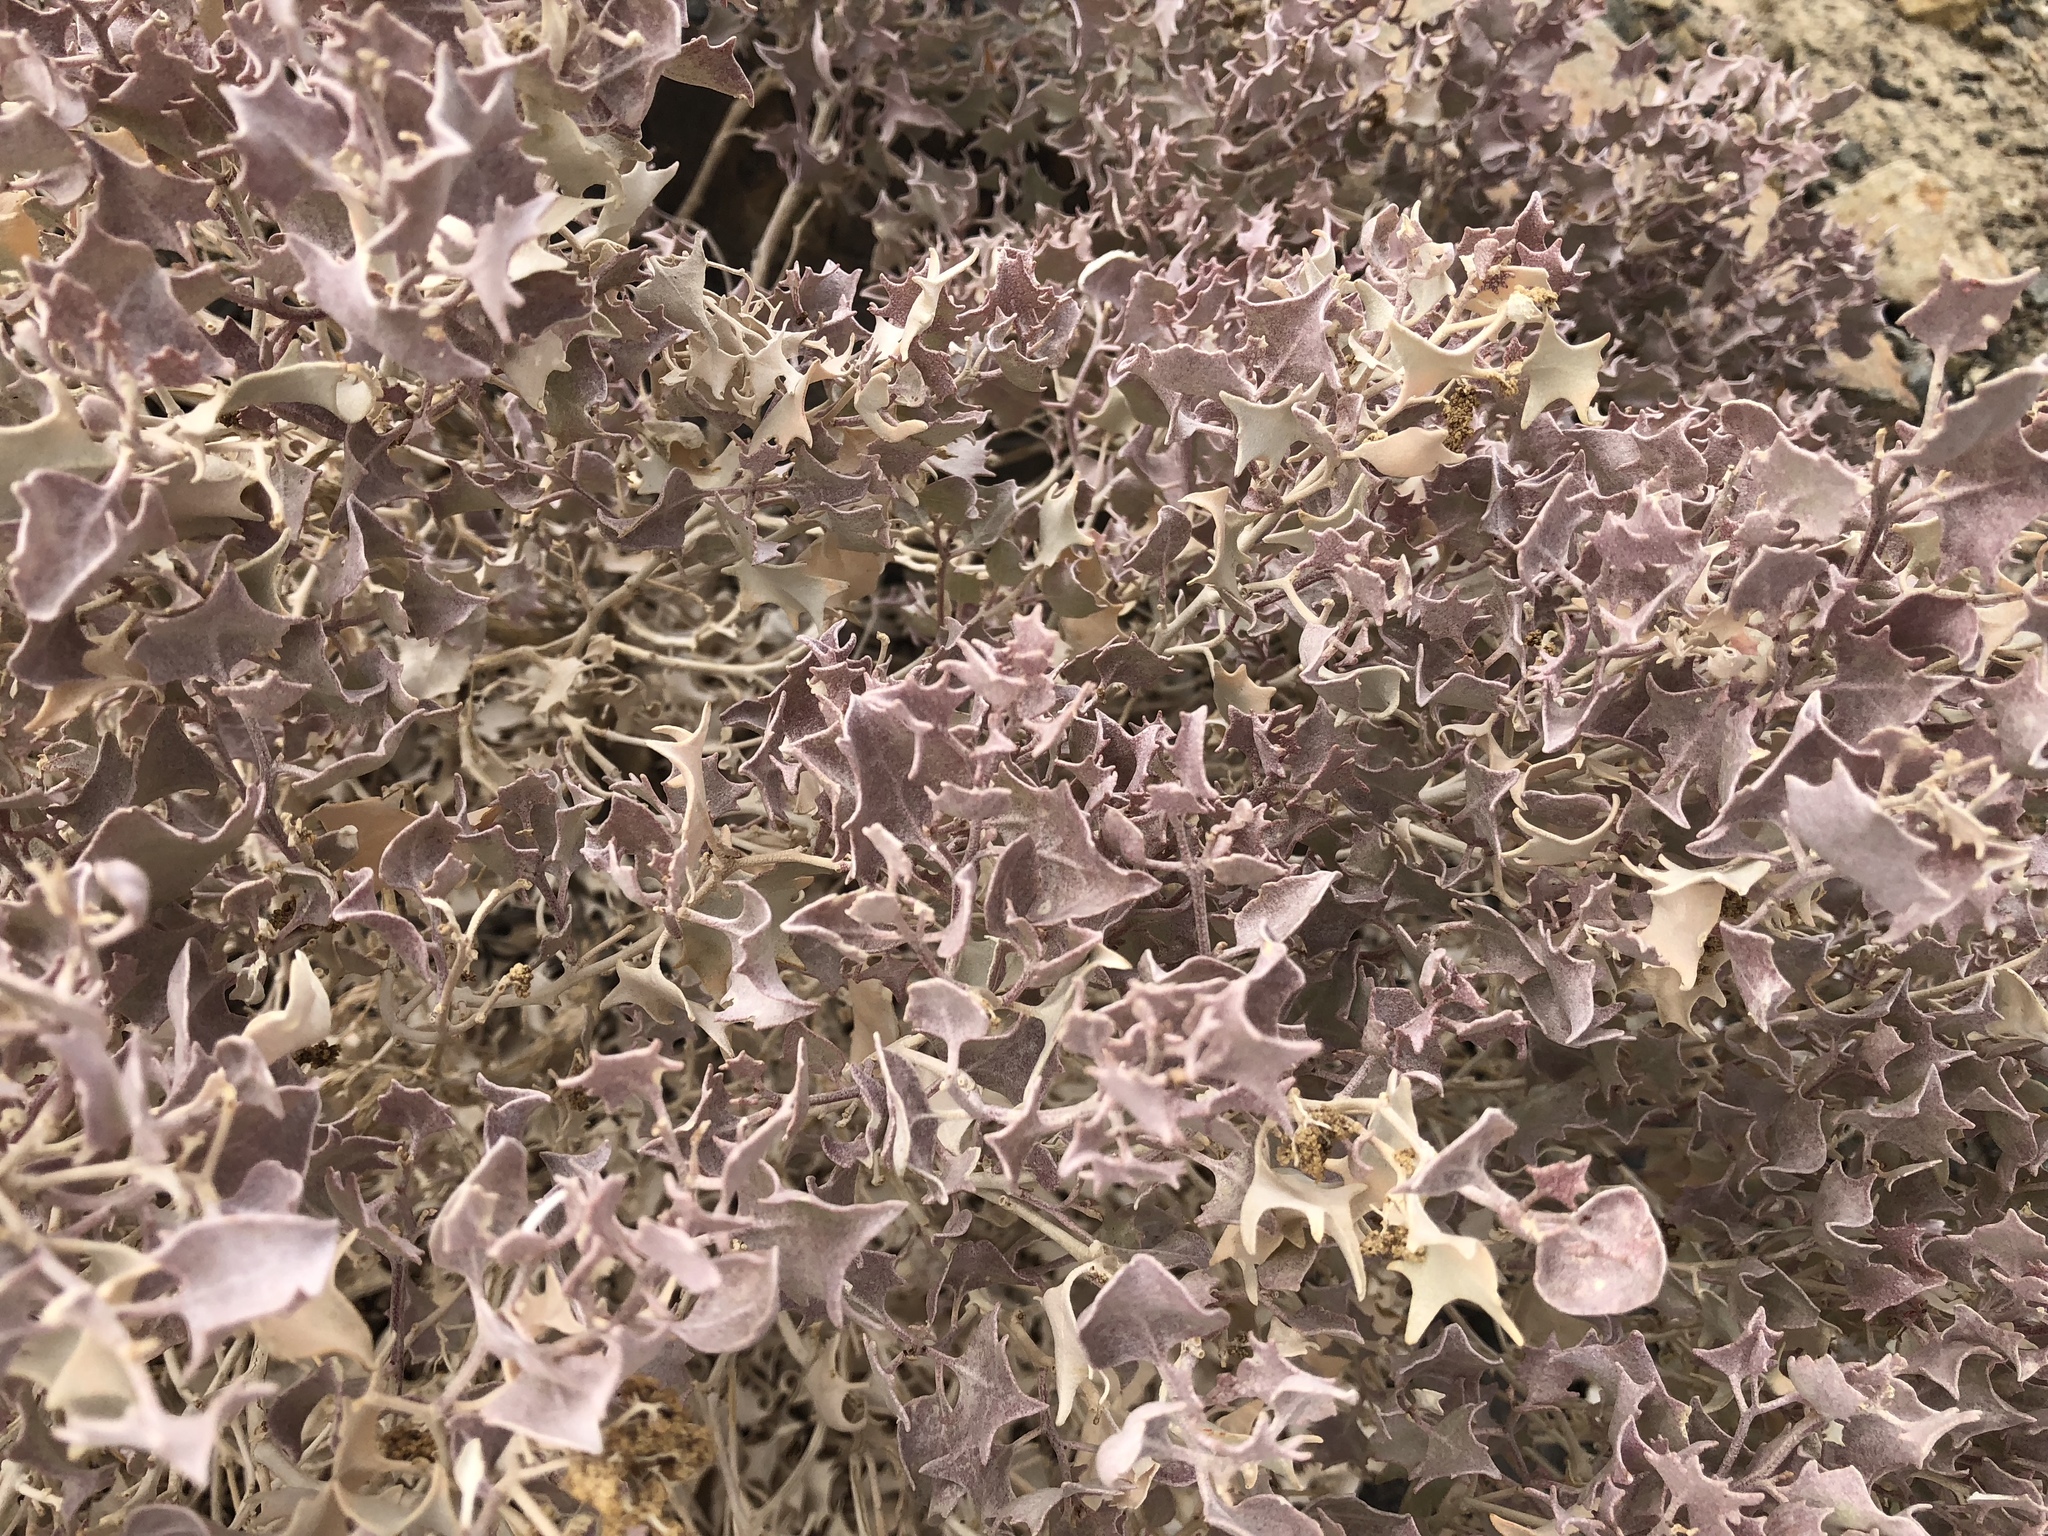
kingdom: Plantae
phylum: Tracheophyta
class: Magnoliopsida
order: Caryophyllales
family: Amaranthaceae
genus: Atriplex
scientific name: Atriplex hymenelytra
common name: Desert-holly
